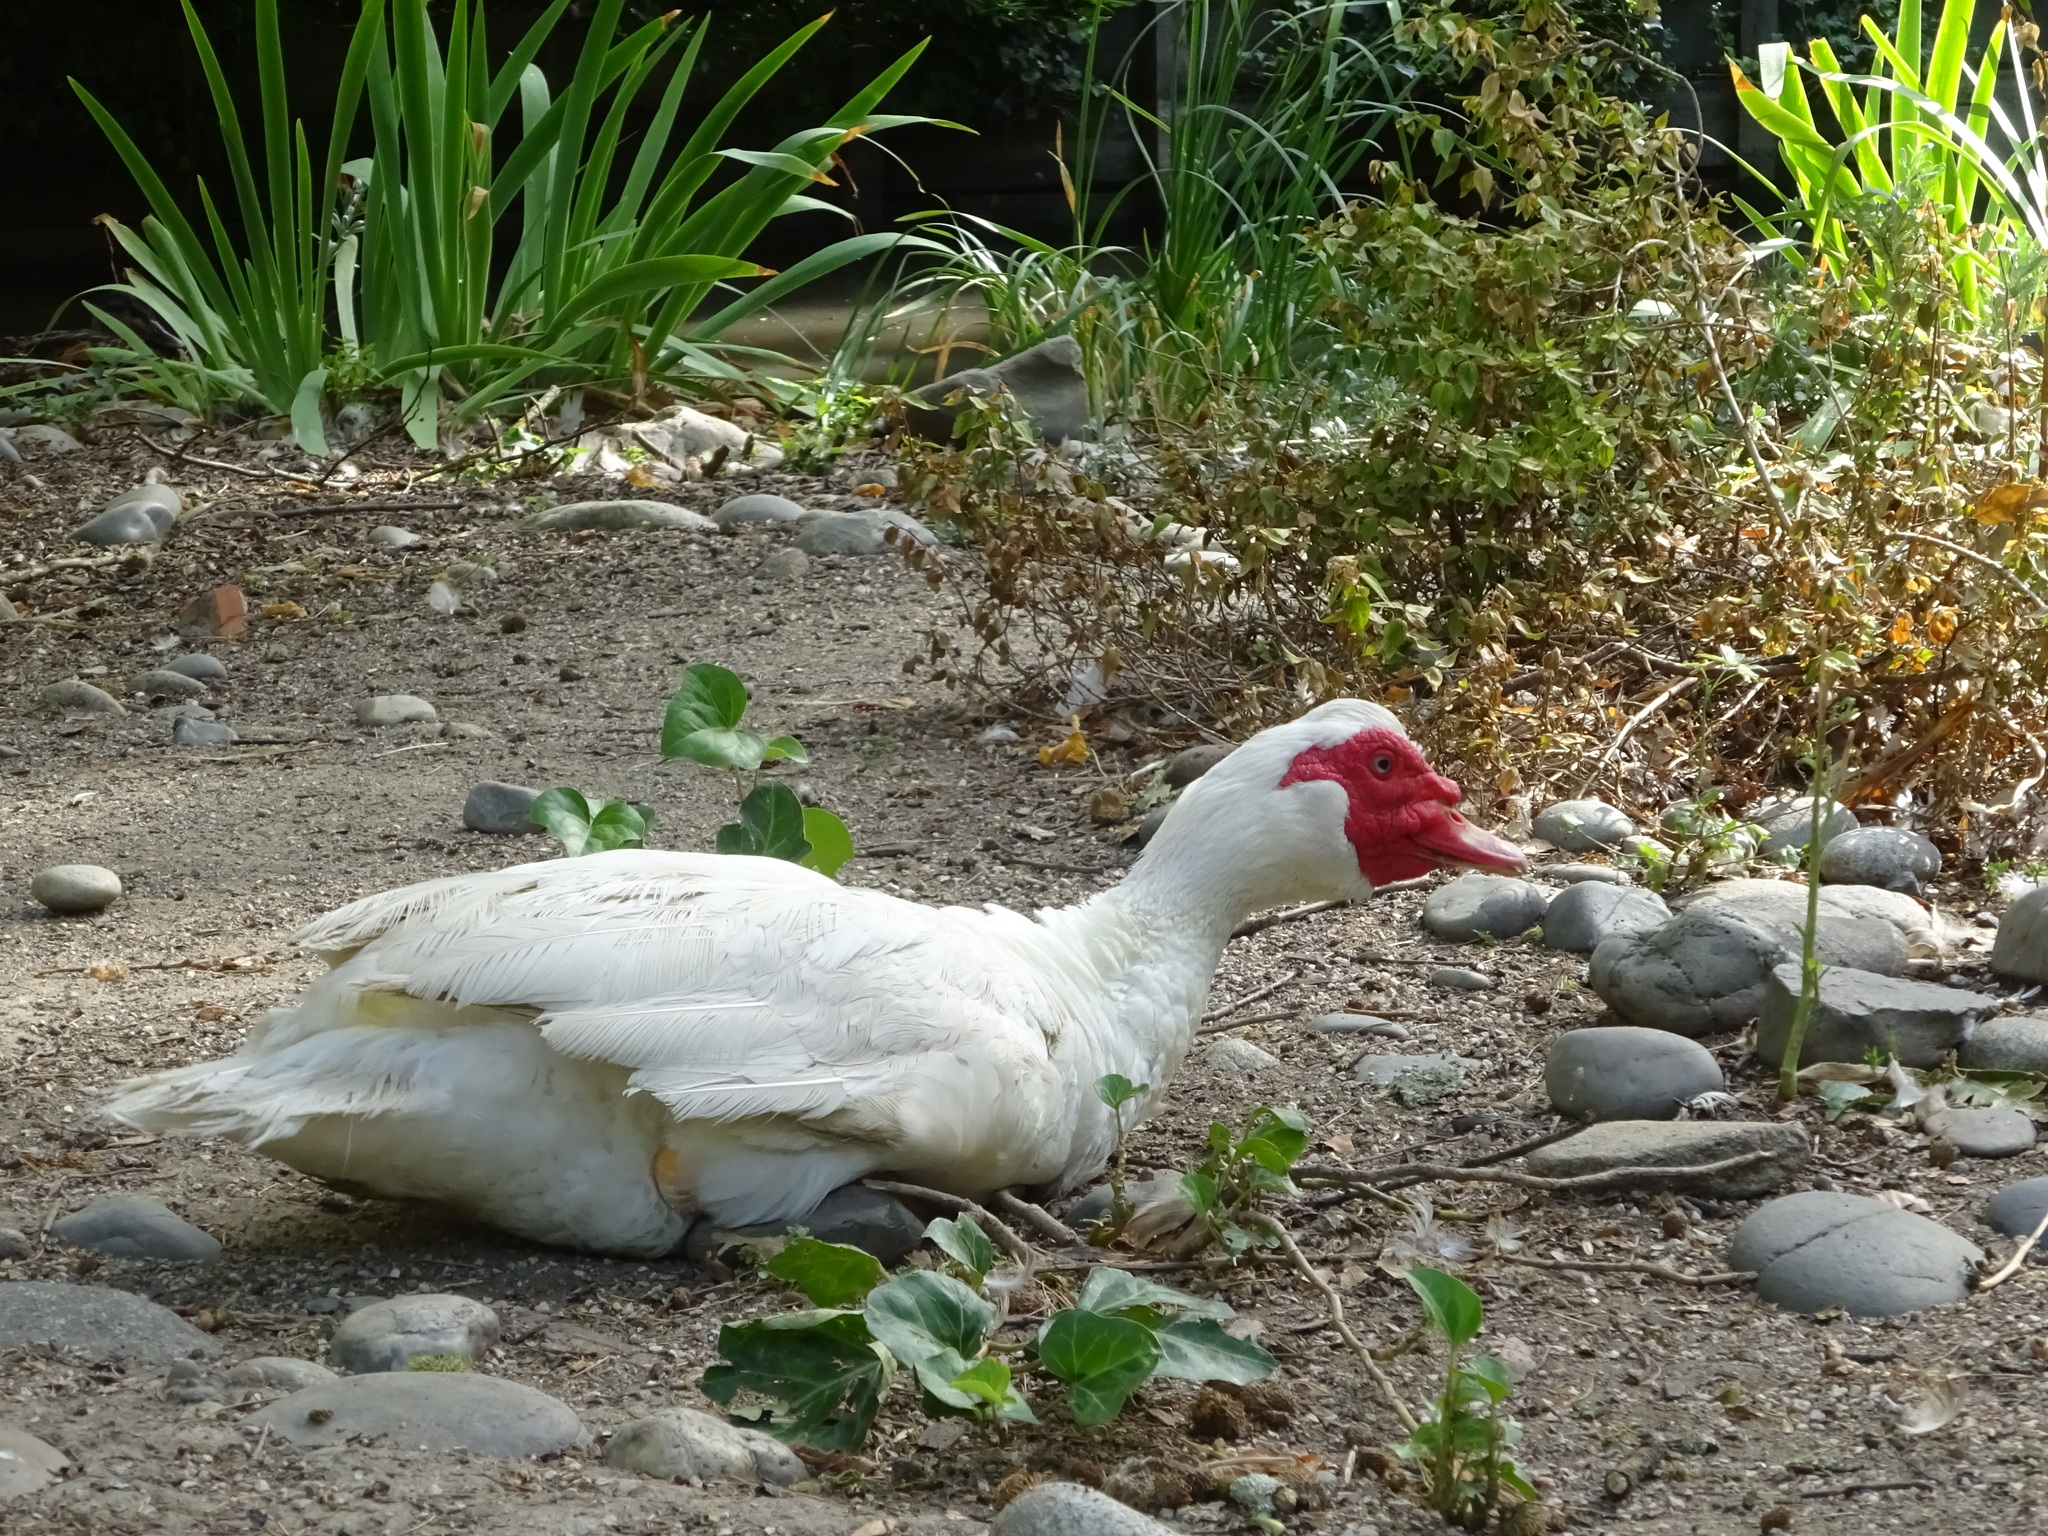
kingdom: Animalia
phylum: Chordata
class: Aves
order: Anseriformes
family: Anatidae
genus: Cairina
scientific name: Cairina moschata
